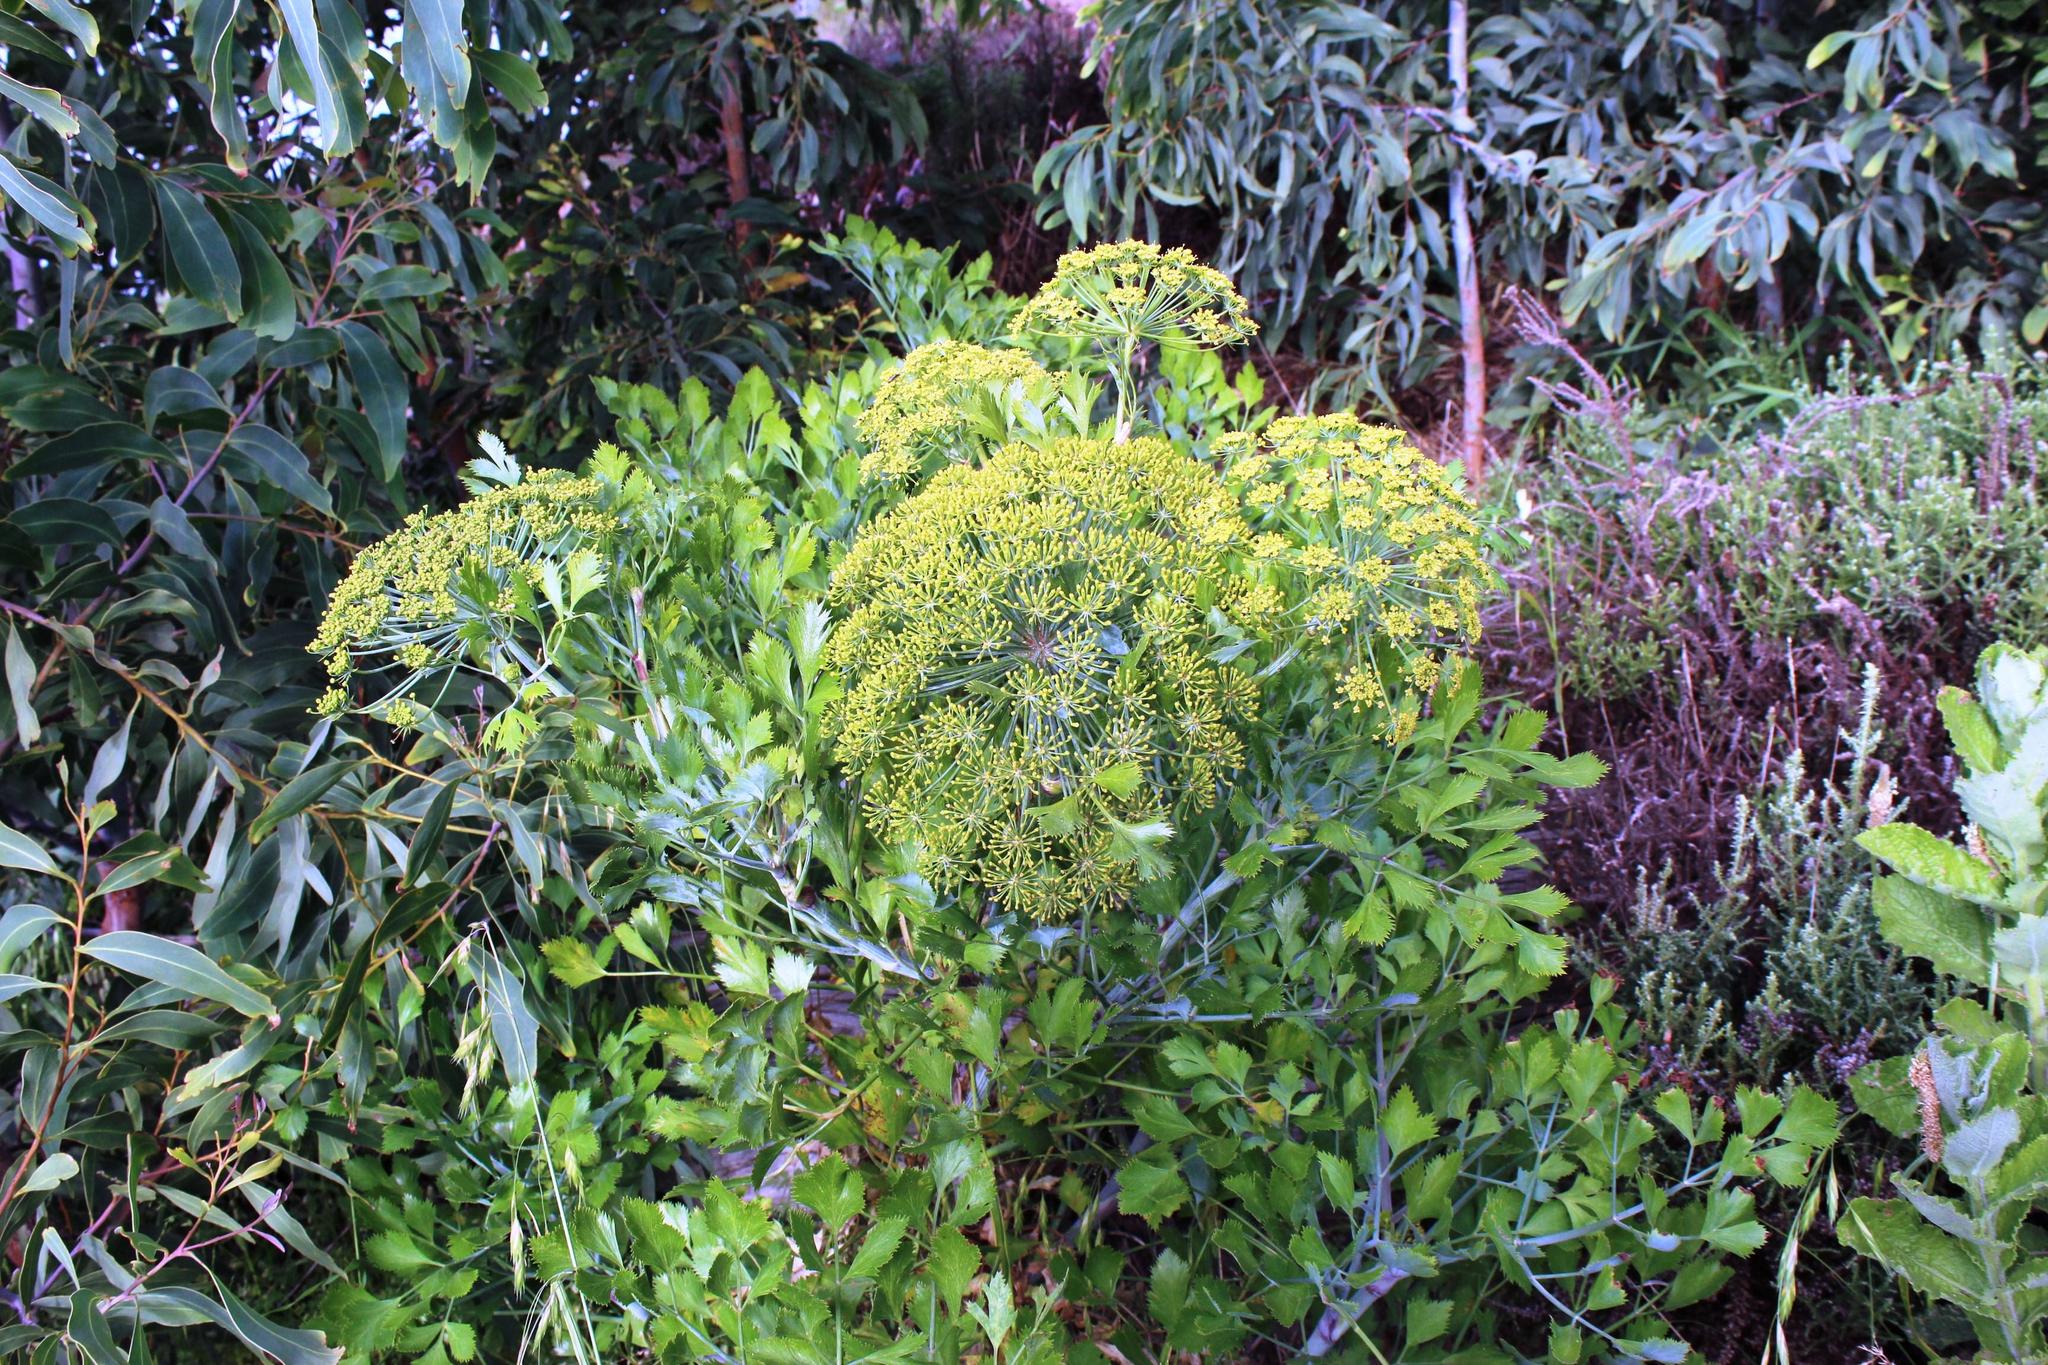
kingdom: Plantae
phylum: Tracheophyta
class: Magnoliopsida
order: Apiales
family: Apiaceae
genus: Notobubon
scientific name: Notobubon galbanum
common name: Blisterbush
